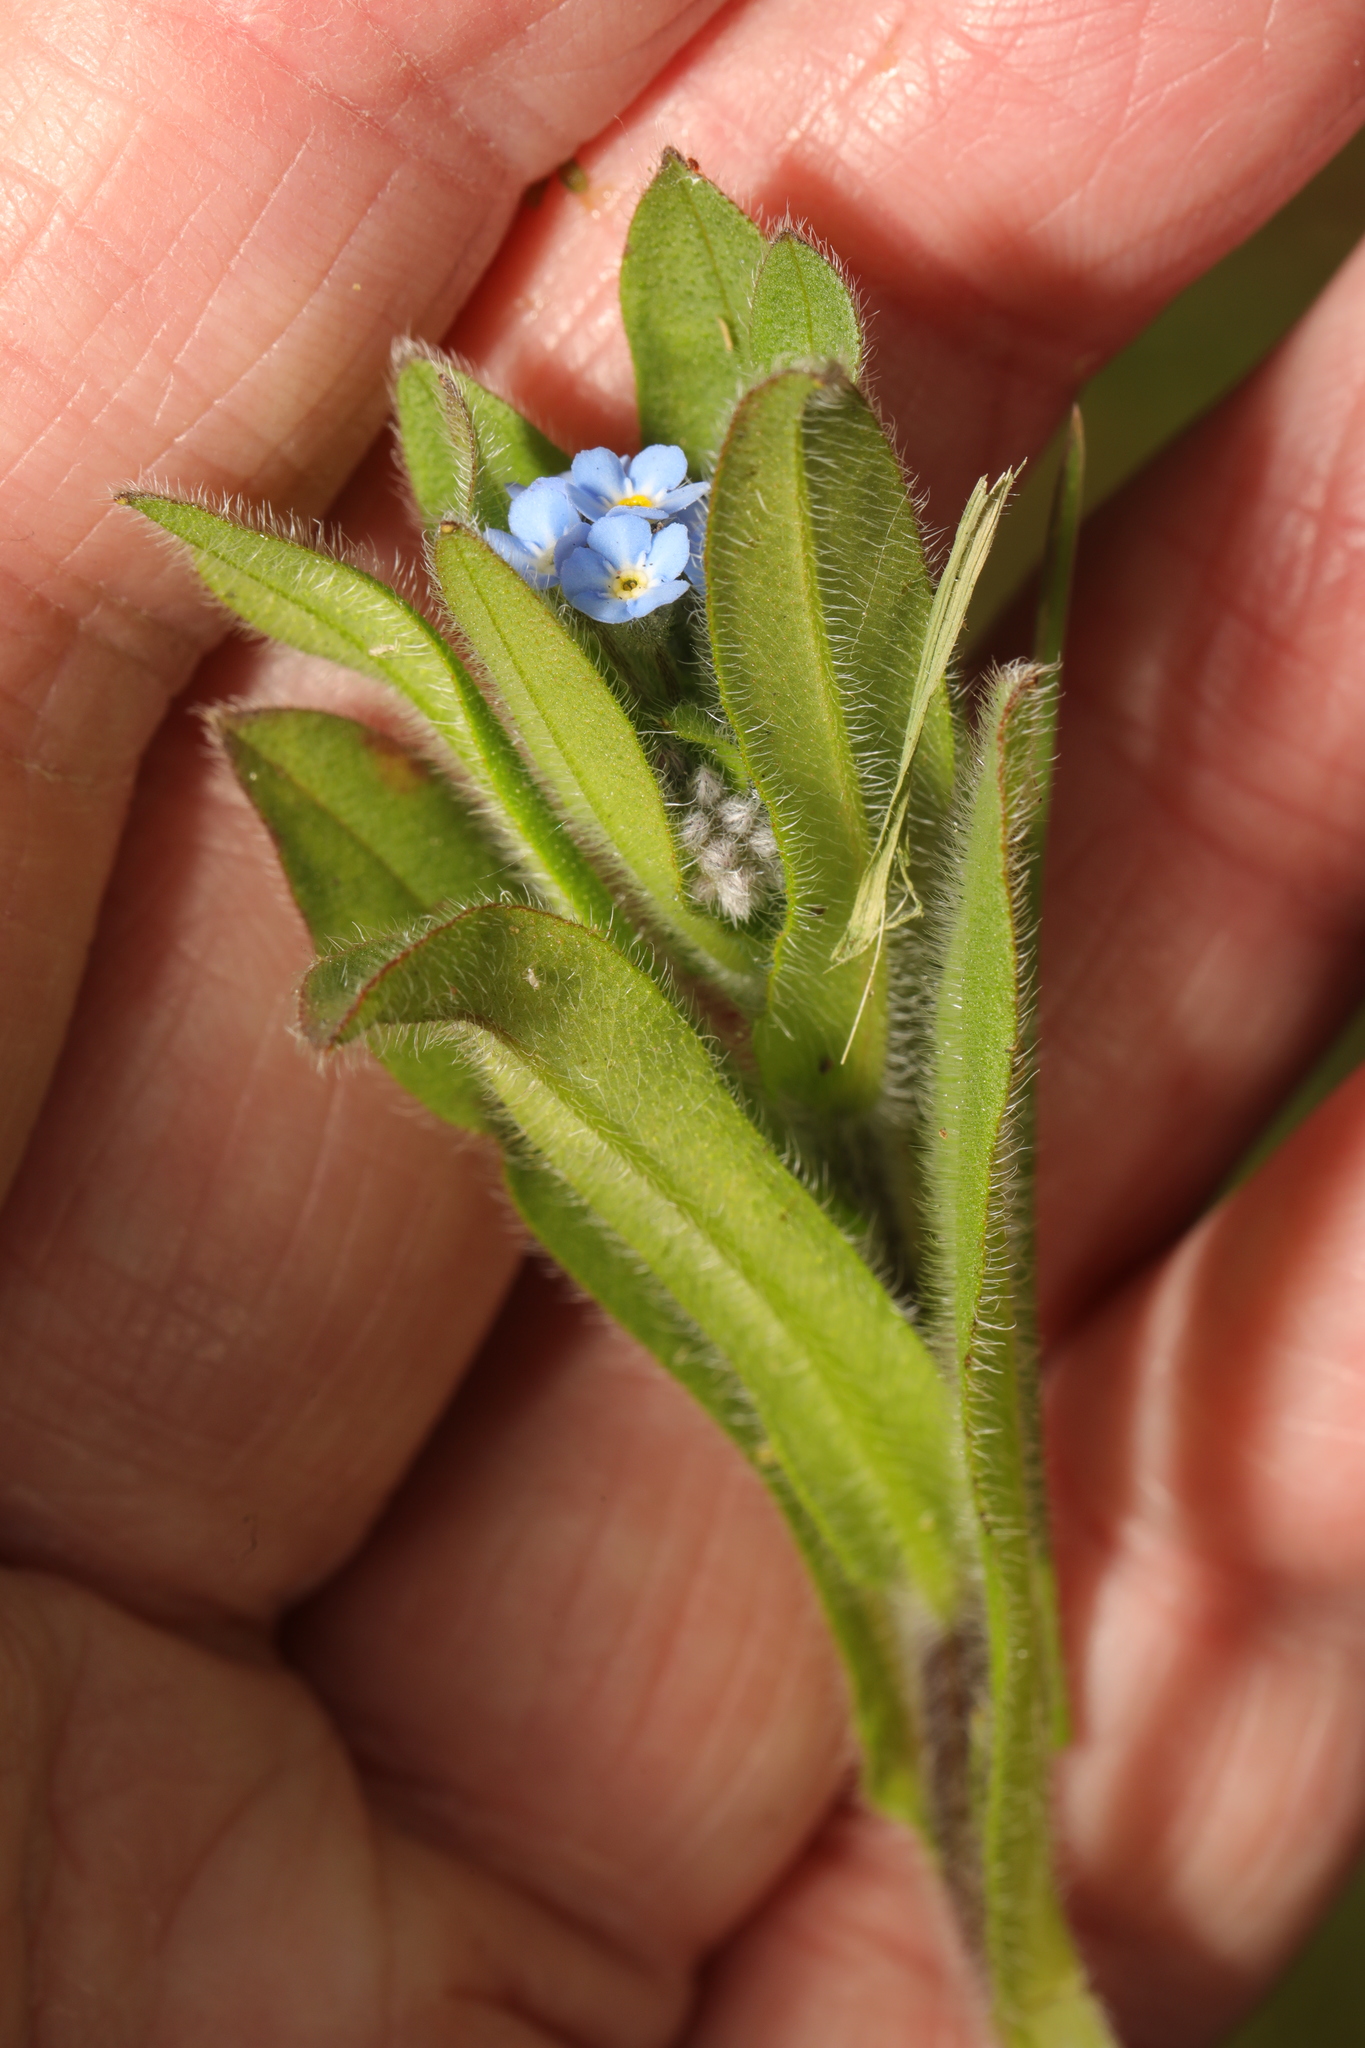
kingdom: Plantae
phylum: Tracheophyta
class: Magnoliopsida
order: Boraginales
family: Boraginaceae
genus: Myosotis
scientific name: Myosotis arvensis
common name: Field forget-me-not
